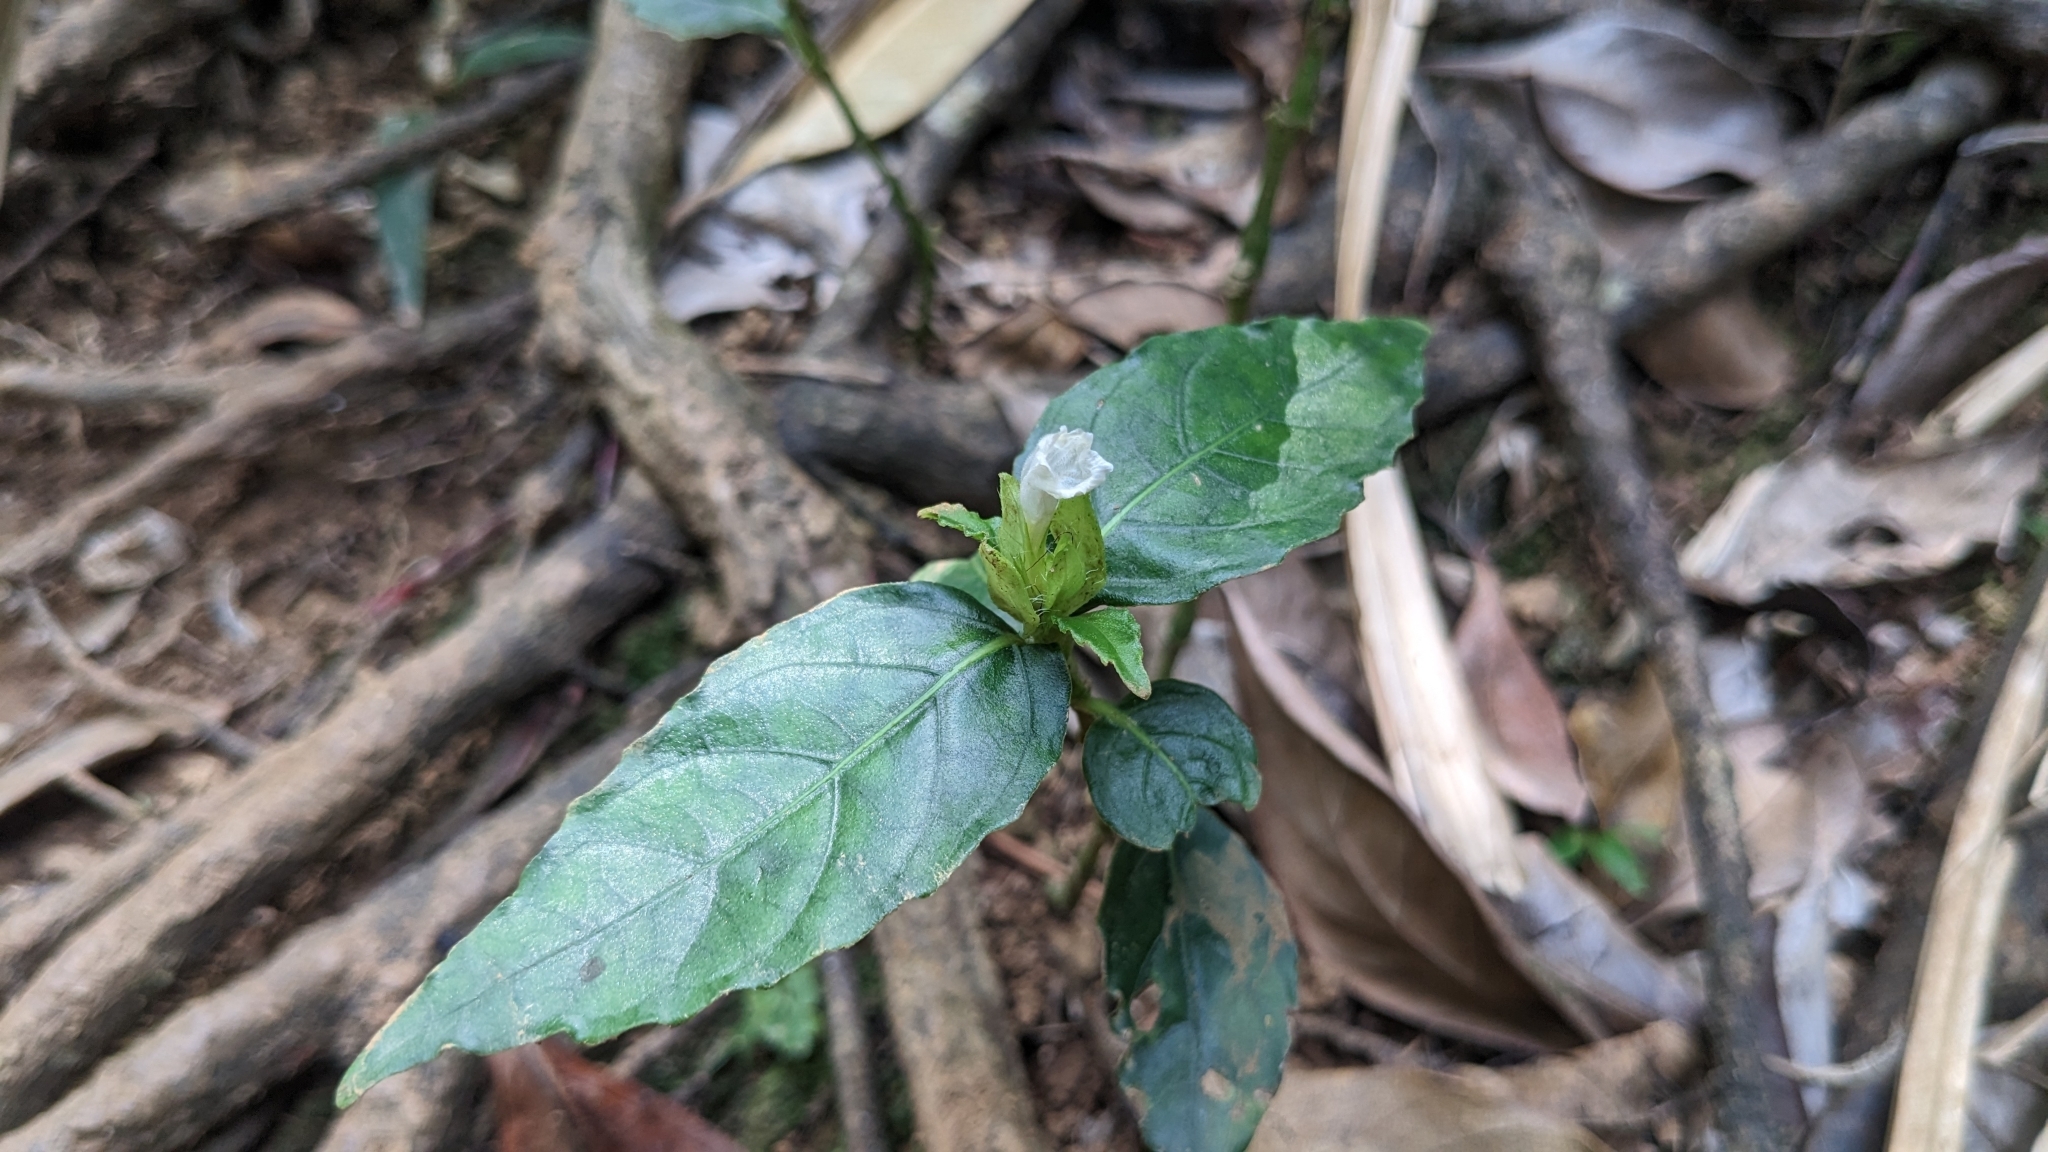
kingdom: Plantae
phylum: Tracheophyta
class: Magnoliopsida
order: Lamiales
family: Acanthaceae
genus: Strobilanthes
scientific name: Strobilanthes cumingiana
